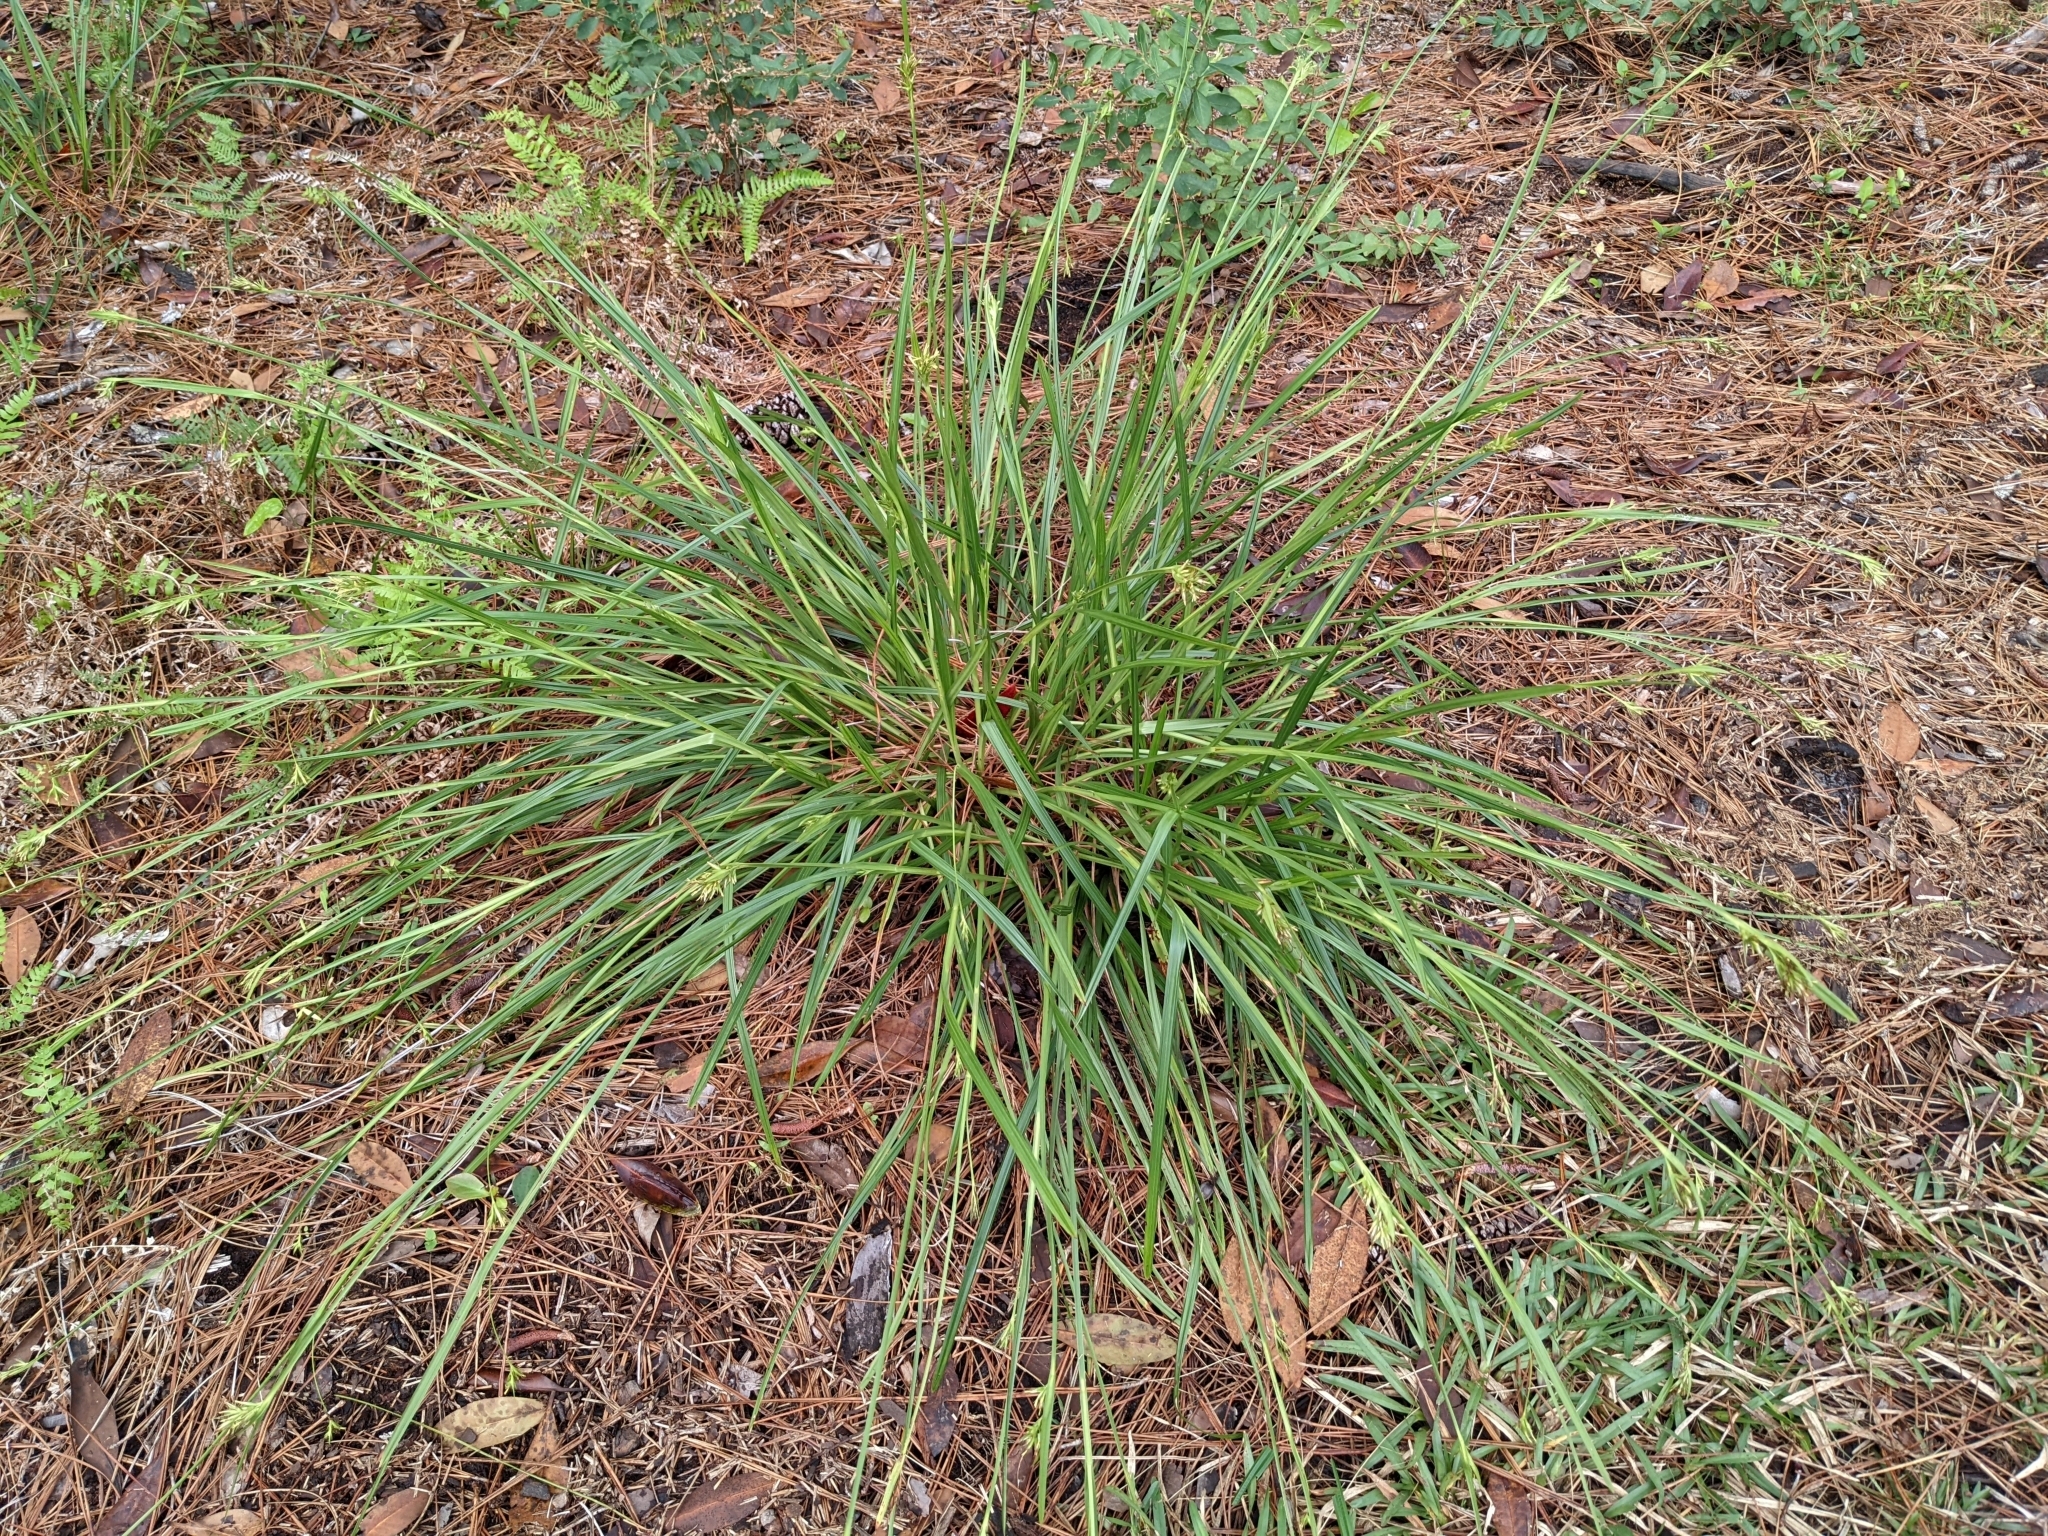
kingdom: Plantae
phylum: Tracheophyta
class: Liliopsida
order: Poales
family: Cyperaceae
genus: Scleria
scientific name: Scleria triglomerata
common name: Whip nutrush
